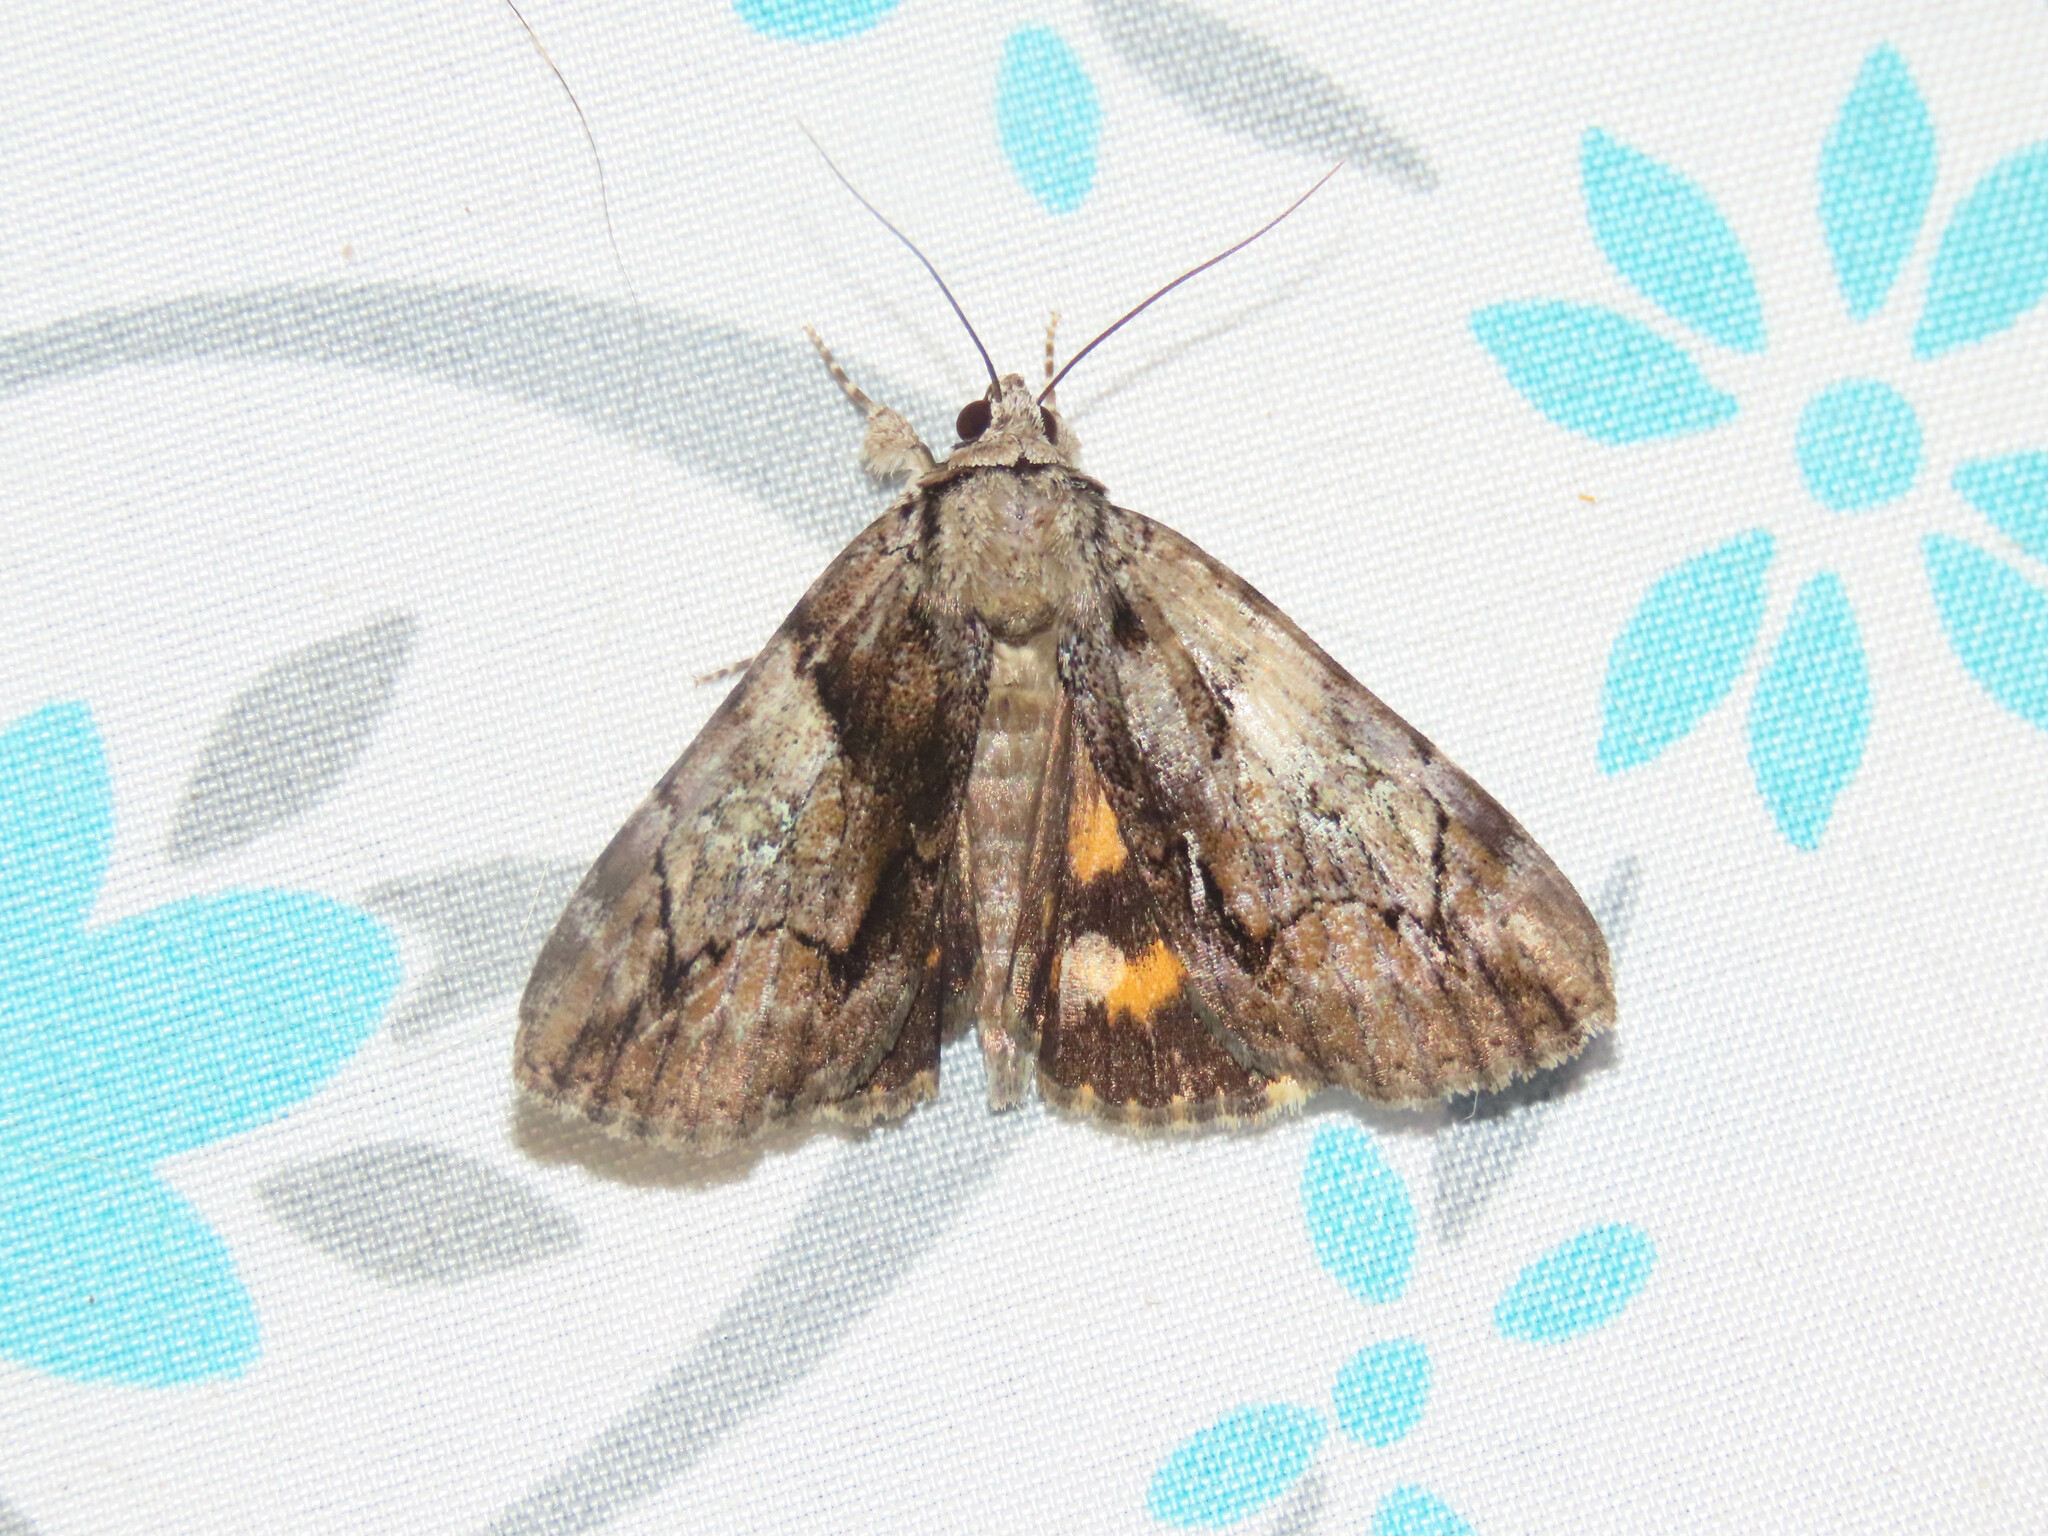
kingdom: Animalia
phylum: Arthropoda
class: Insecta
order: Lepidoptera
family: Erebidae
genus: Catocala
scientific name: Catocala crataegi
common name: Hawthorn underwing moth
